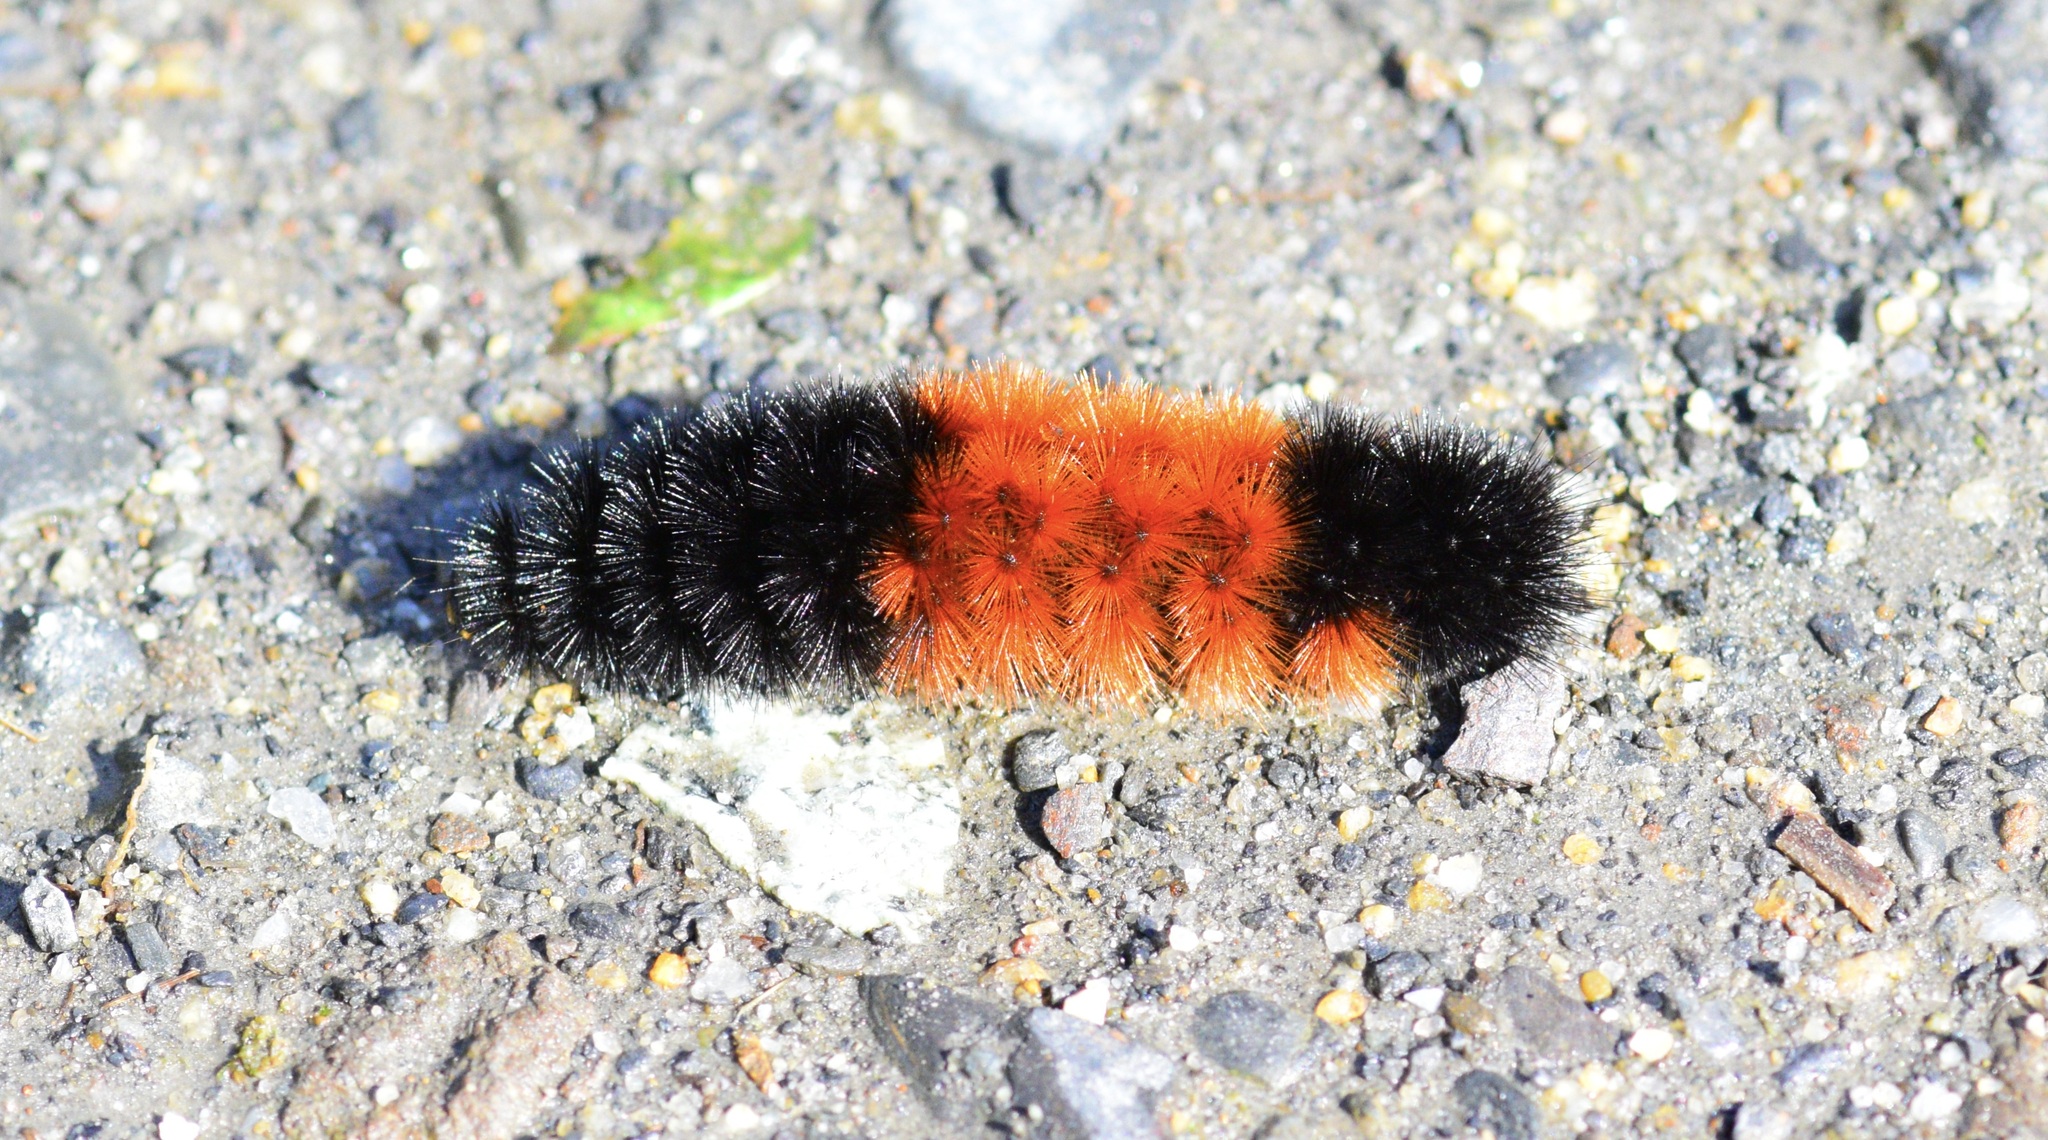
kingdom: Animalia
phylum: Arthropoda
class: Insecta
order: Lepidoptera
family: Erebidae
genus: Pyrrharctia
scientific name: Pyrrharctia isabella
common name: Isabella tiger moth
